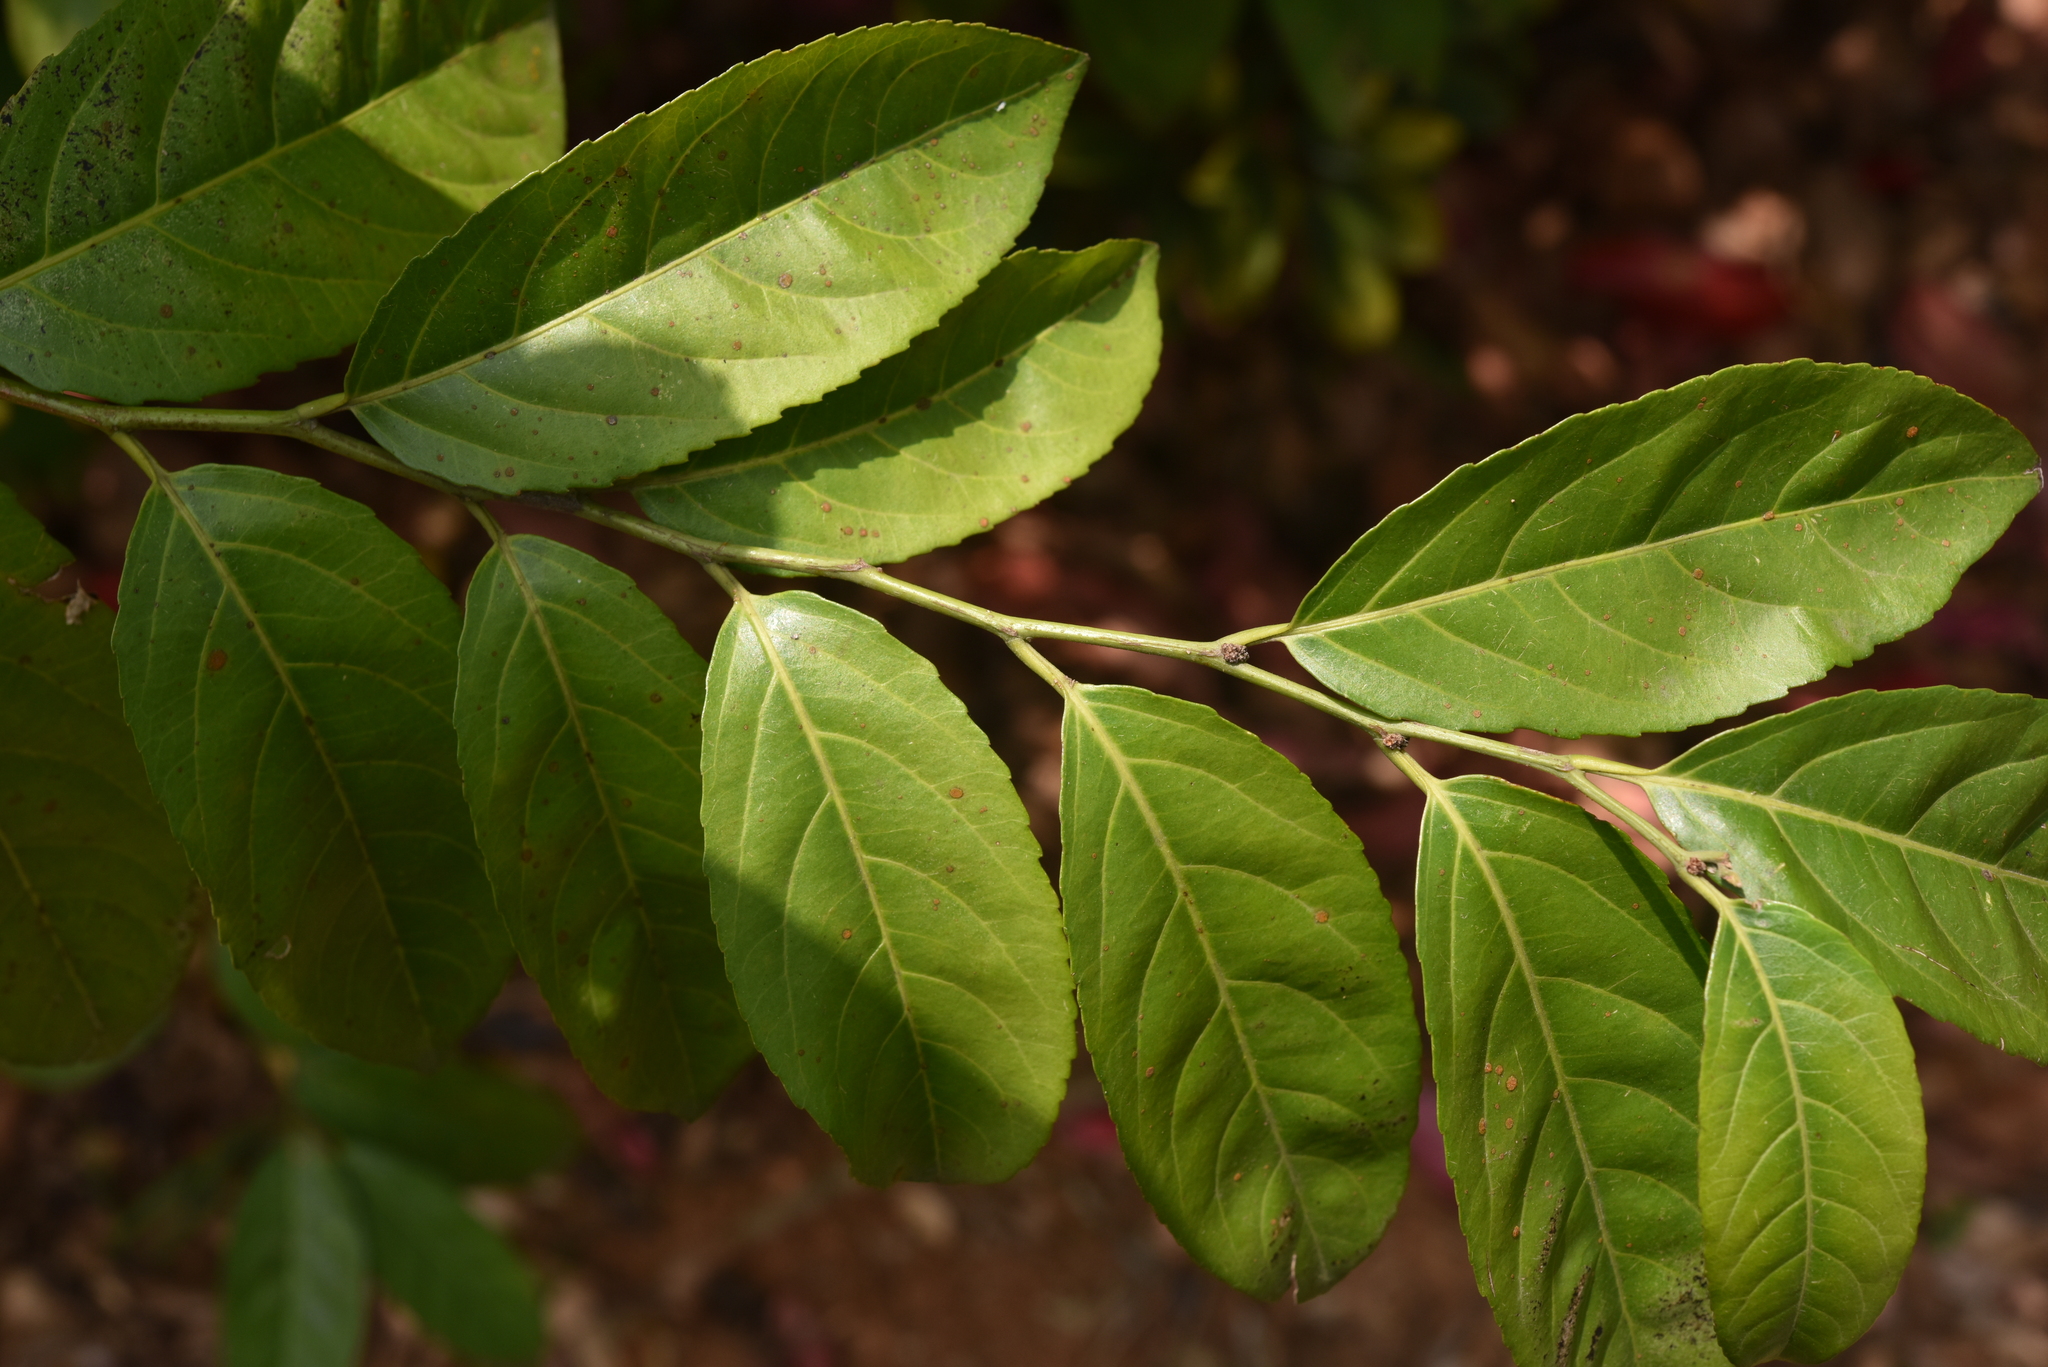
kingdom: Plantae
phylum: Tracheophyta
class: Magnoliopsida
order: Malpighiales
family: Salicaceae
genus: Casearia
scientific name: Casearia glomerata
